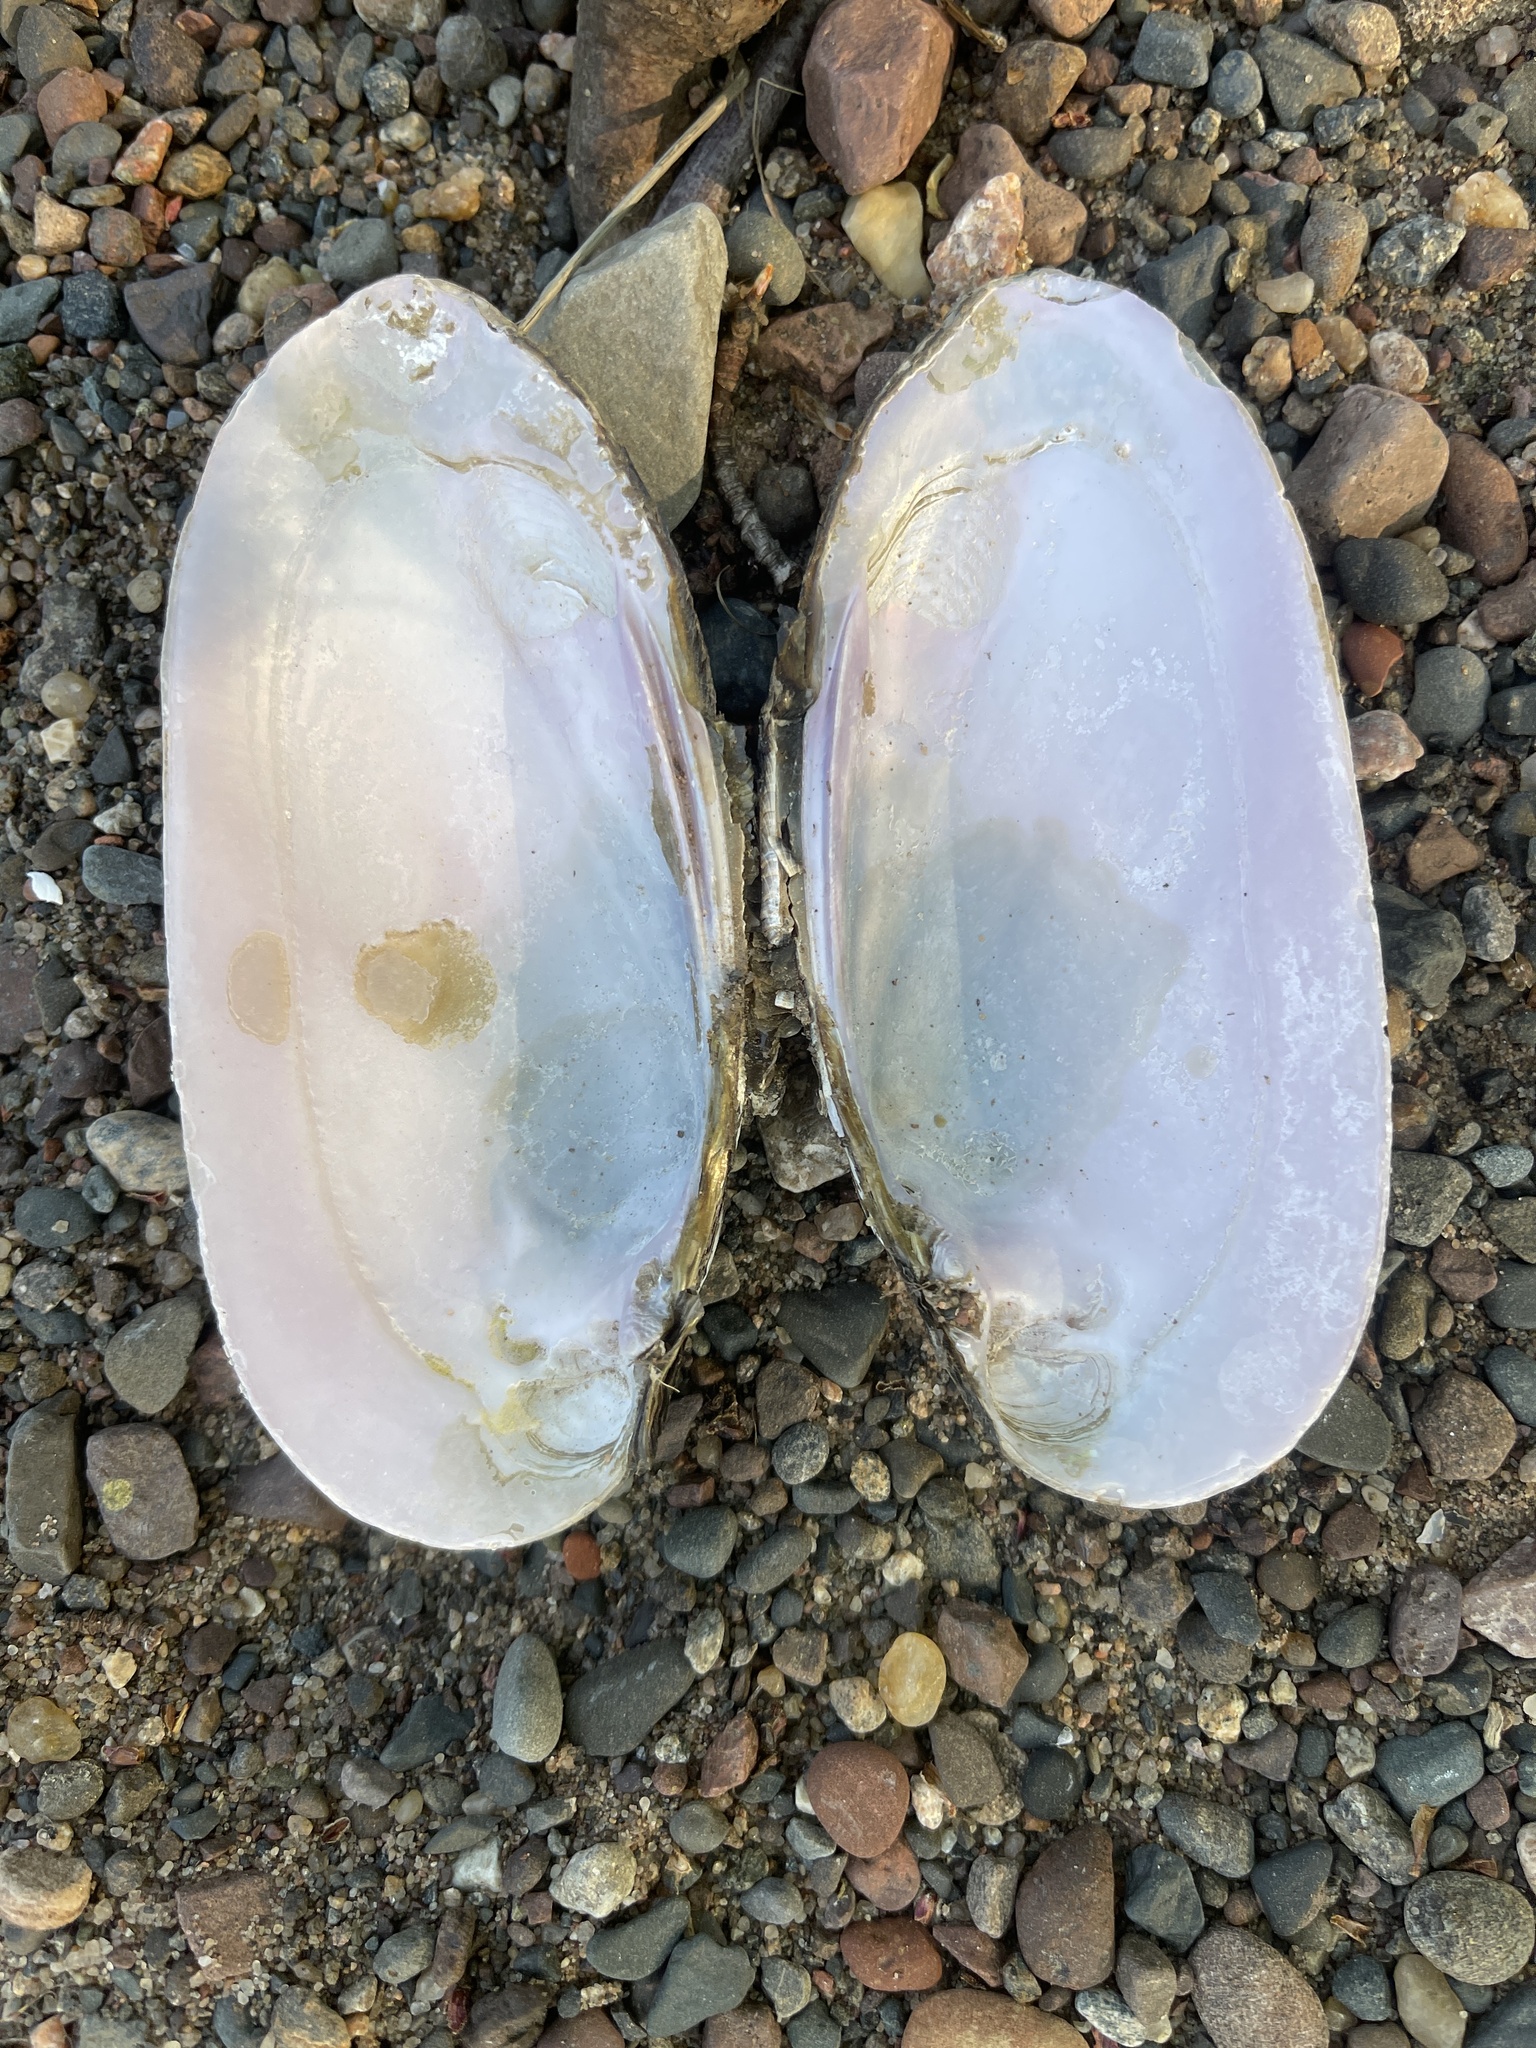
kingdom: Animalia
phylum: Mollusca
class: Bivalvia
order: Unionida
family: Unionidae
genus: Ligumia
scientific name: Ligumia recta
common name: Black sandshell
